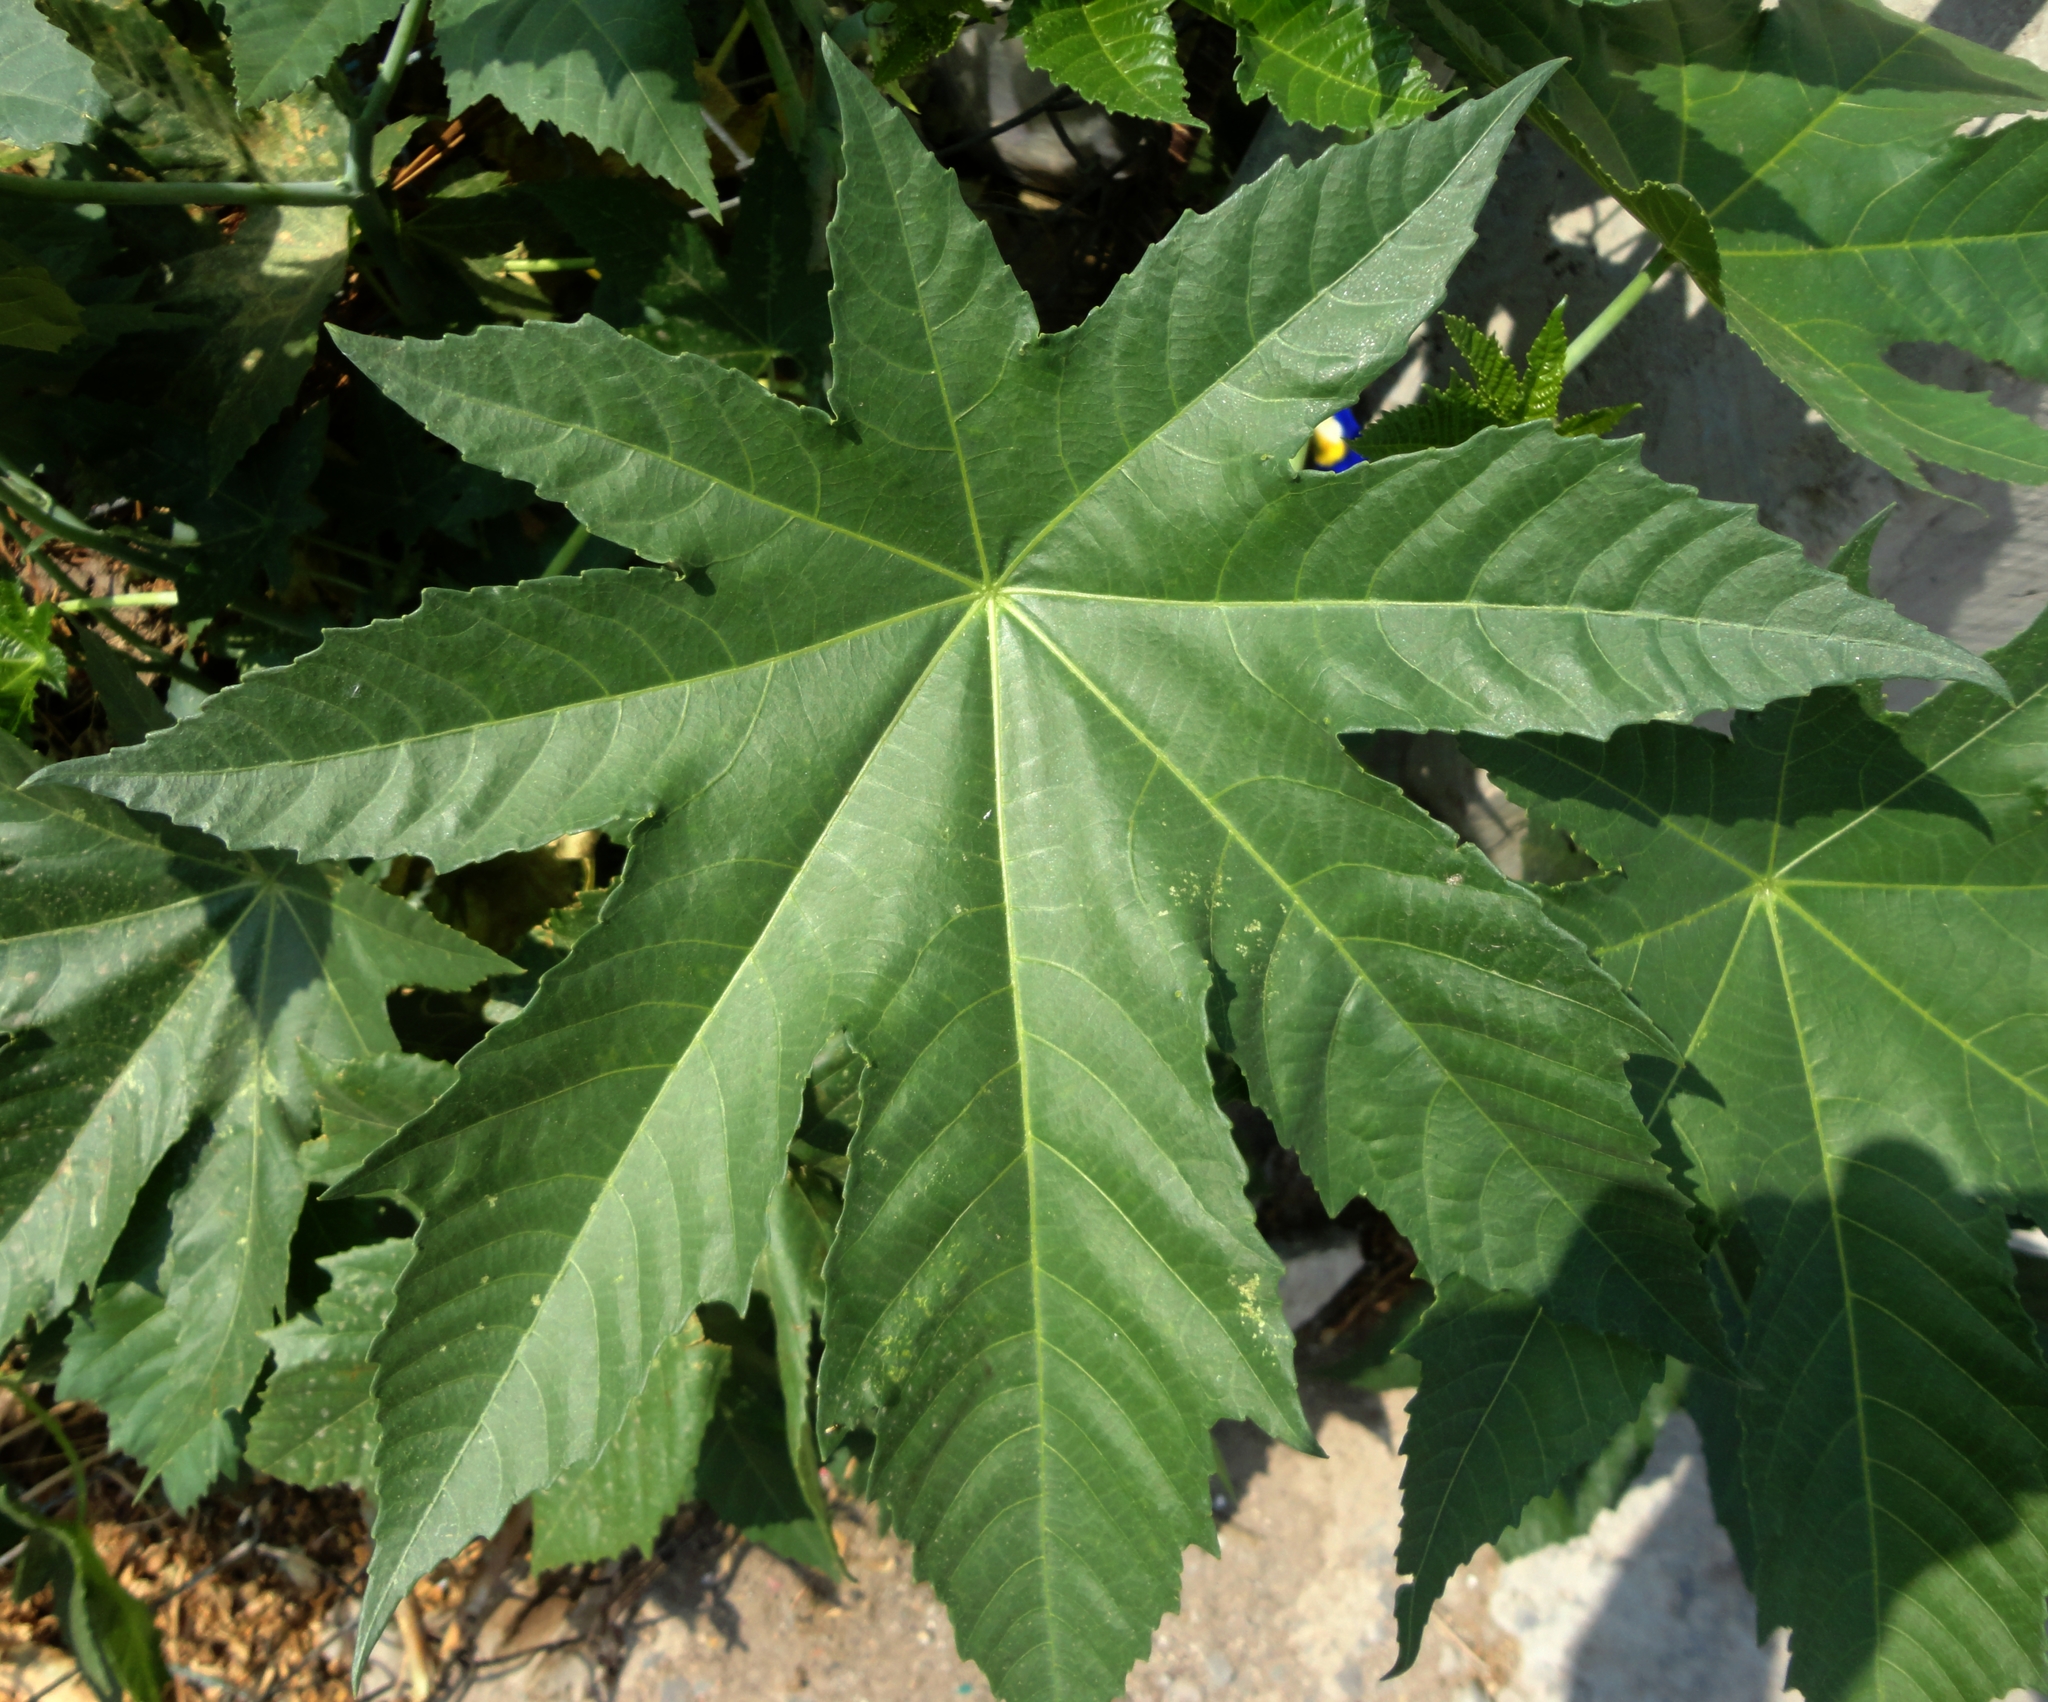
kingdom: Plantae
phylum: Tracheophyta
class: Magnoliopsida
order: Malpighiales
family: Euphorbiaceae
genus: Ricinus
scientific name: Ricinus communis
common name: Castor-oil-plant
